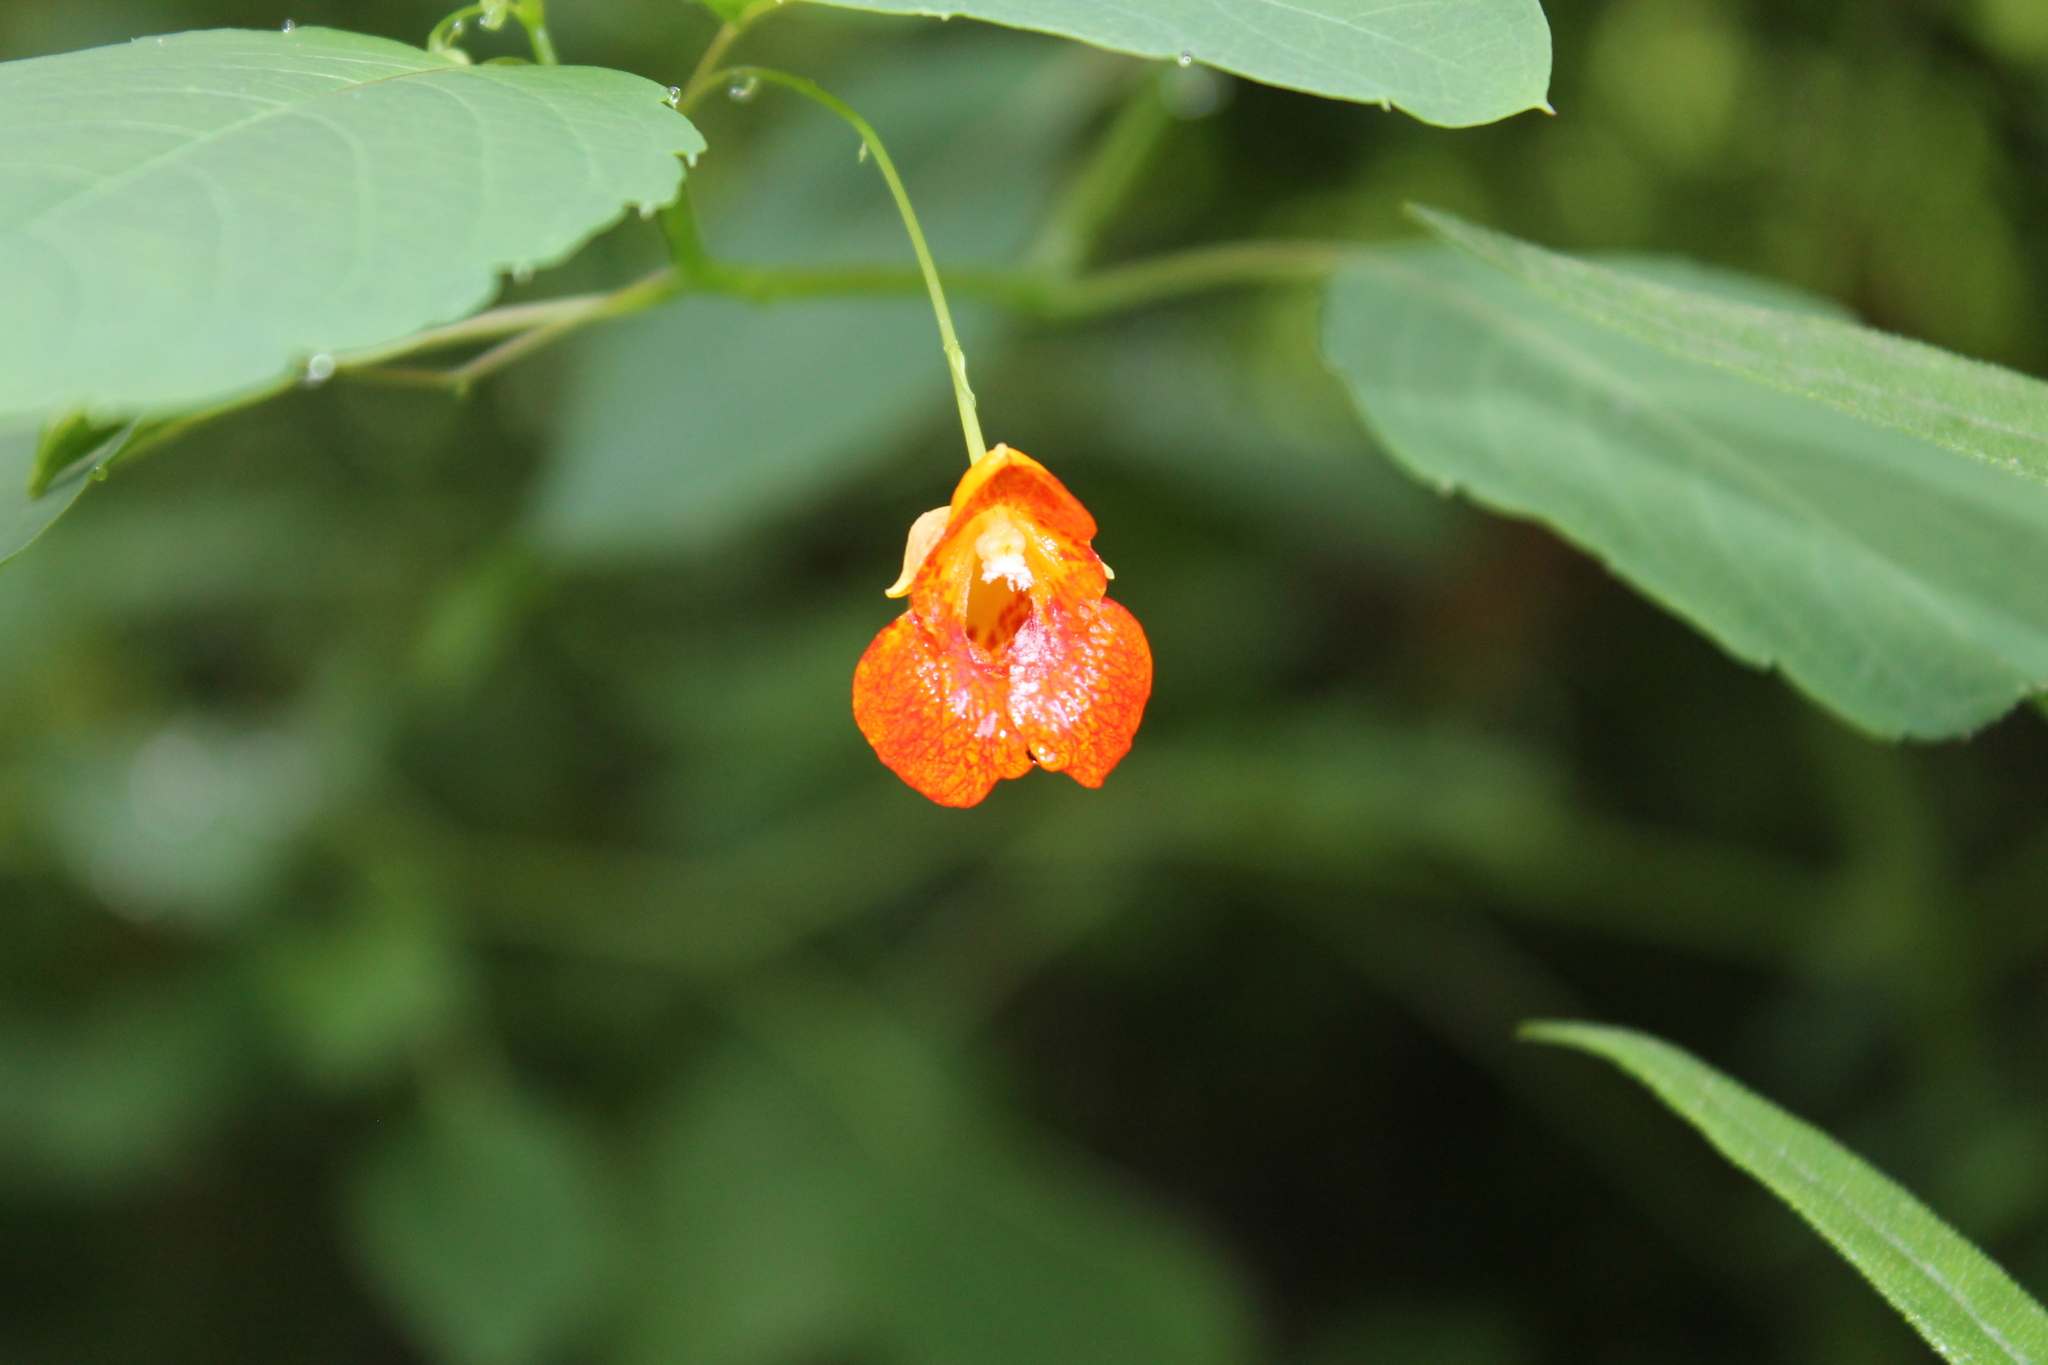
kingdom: Plantae
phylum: Tracheophyta
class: Magnoliopsida
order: Ericales
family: Balsaminaceae
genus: Impatiens
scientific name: Impatiens capensis
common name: Orange balsam
